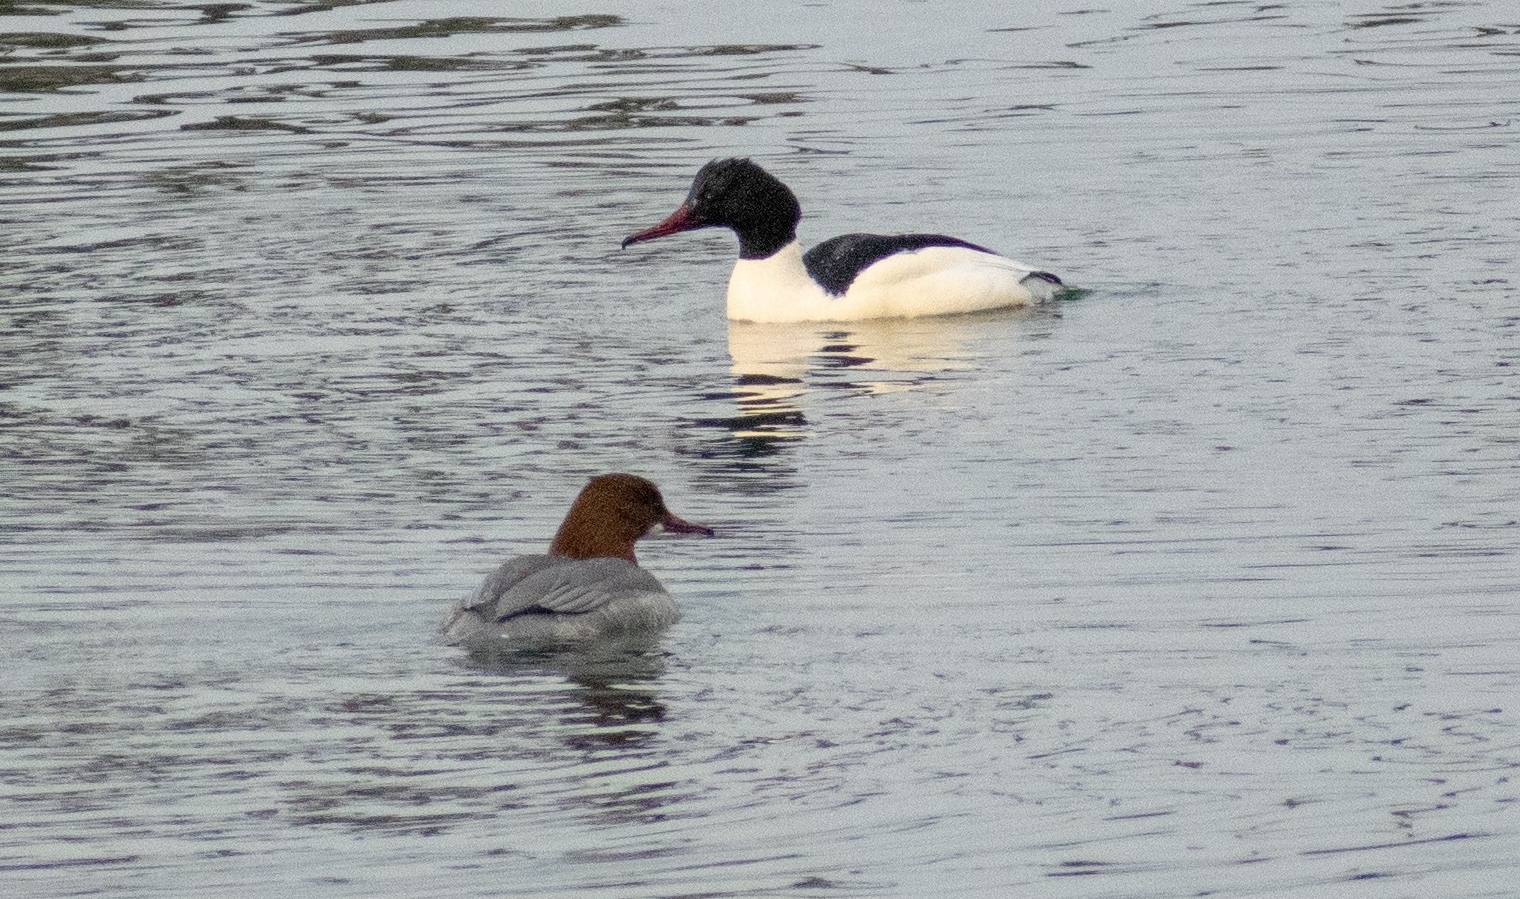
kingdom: Animalia
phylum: Chordata
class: Aves
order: Anseriformes
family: Anatidae
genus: Mergus
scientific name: Mergus merganser
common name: Common merganser
